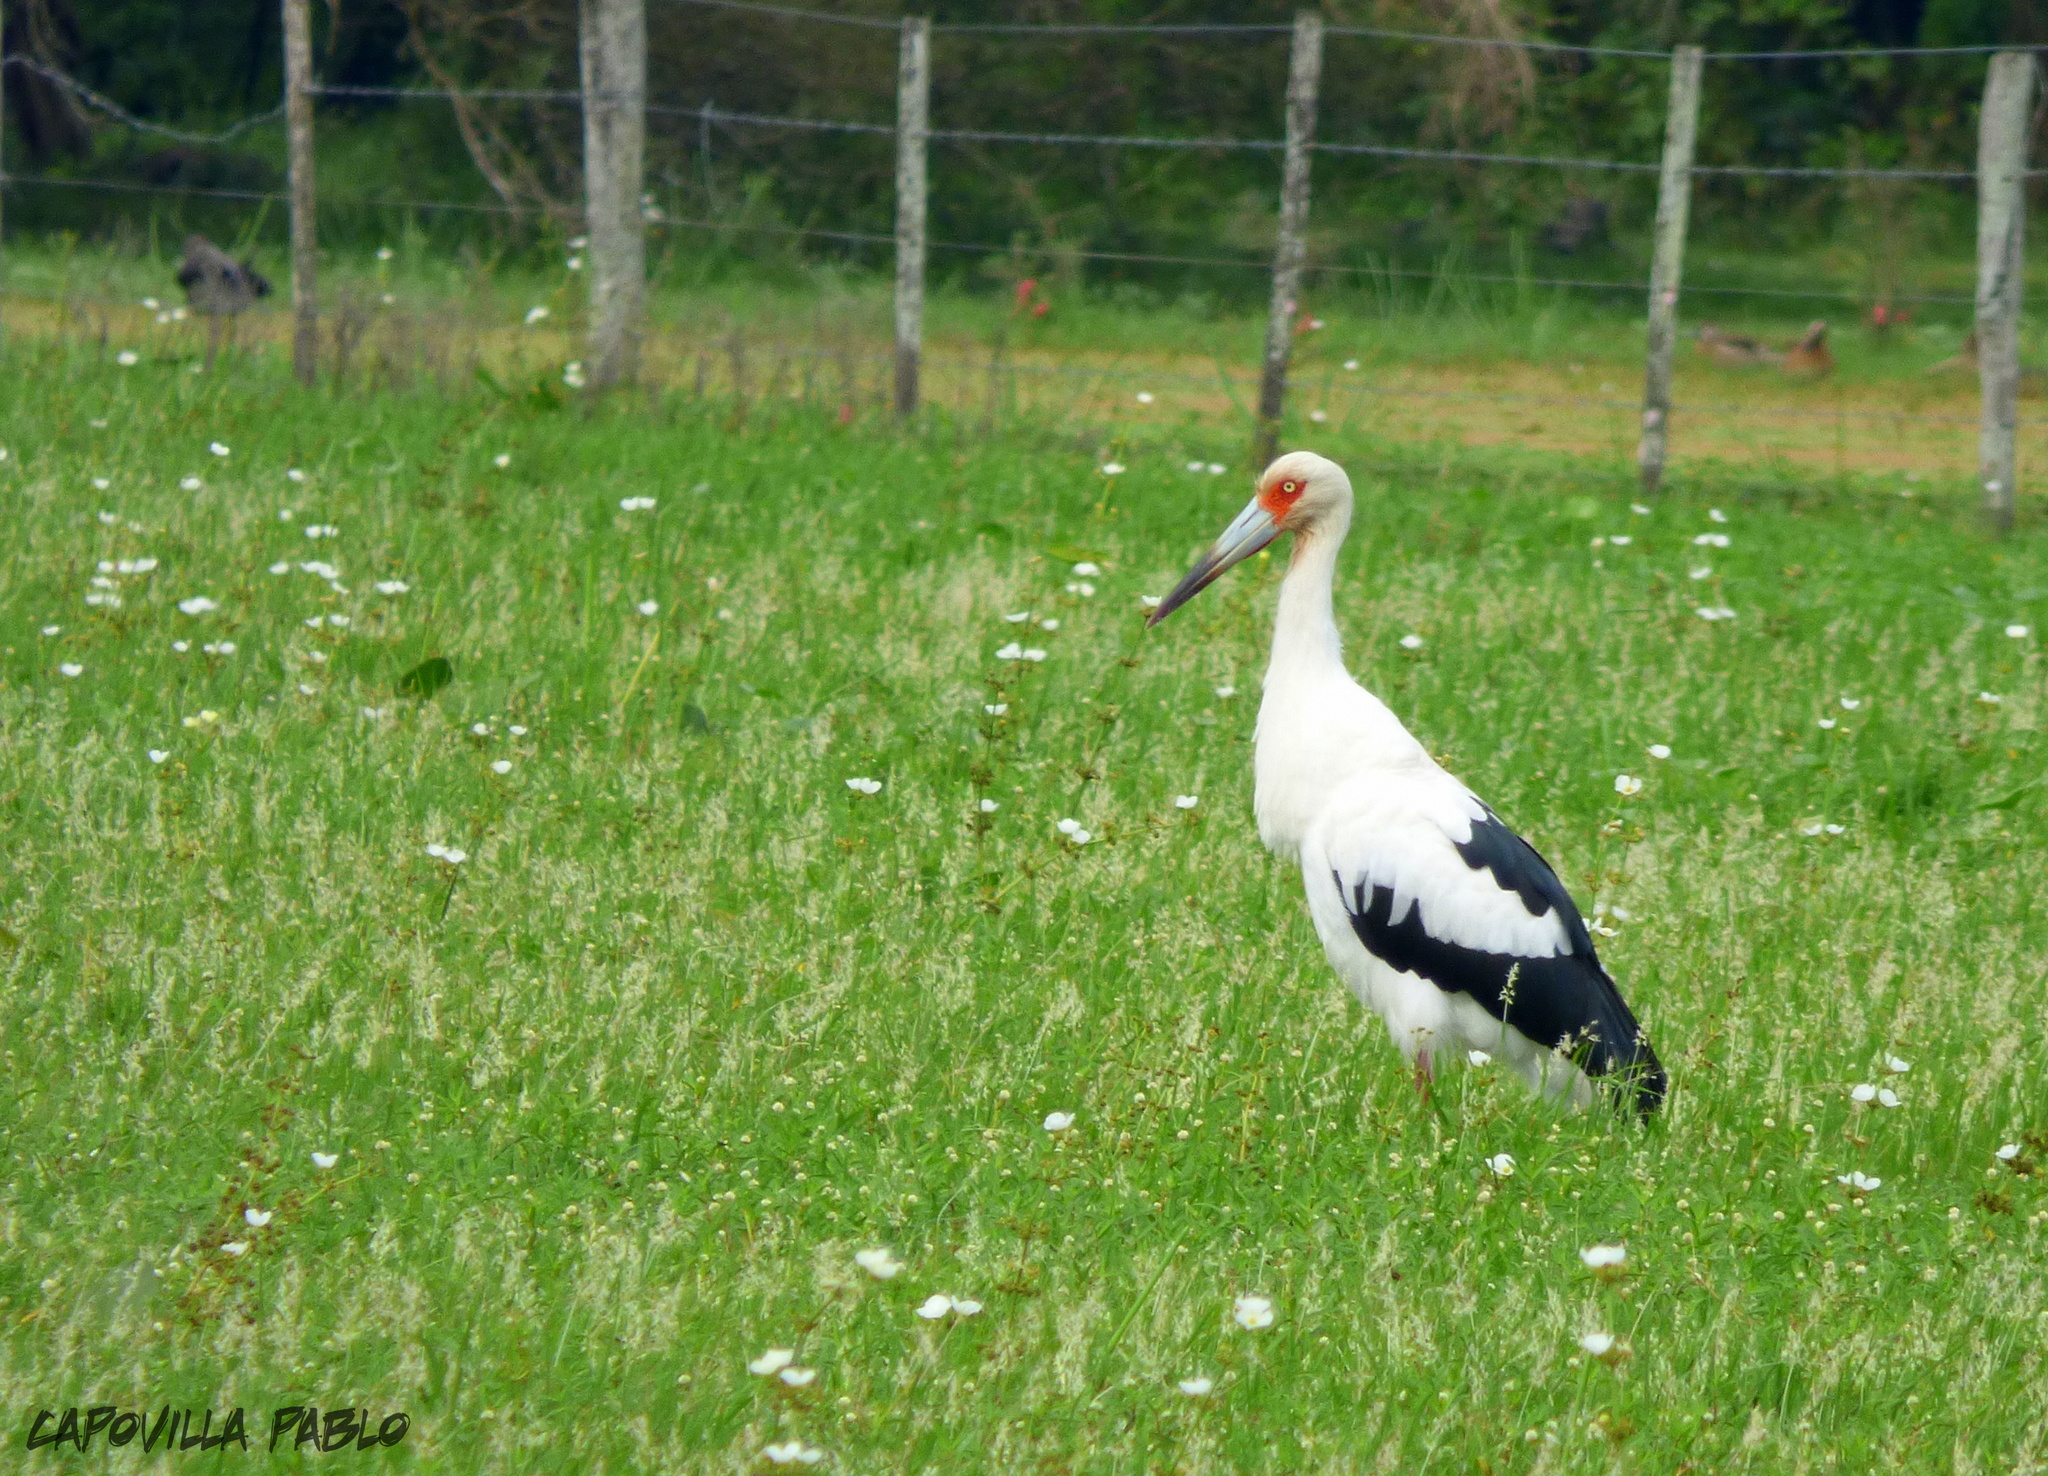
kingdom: Animalia
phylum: Chordata
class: Aves
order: Ciconiiformes
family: Ciconiidae
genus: Ciconia
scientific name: Ciconia maguari
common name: Maguari stork
